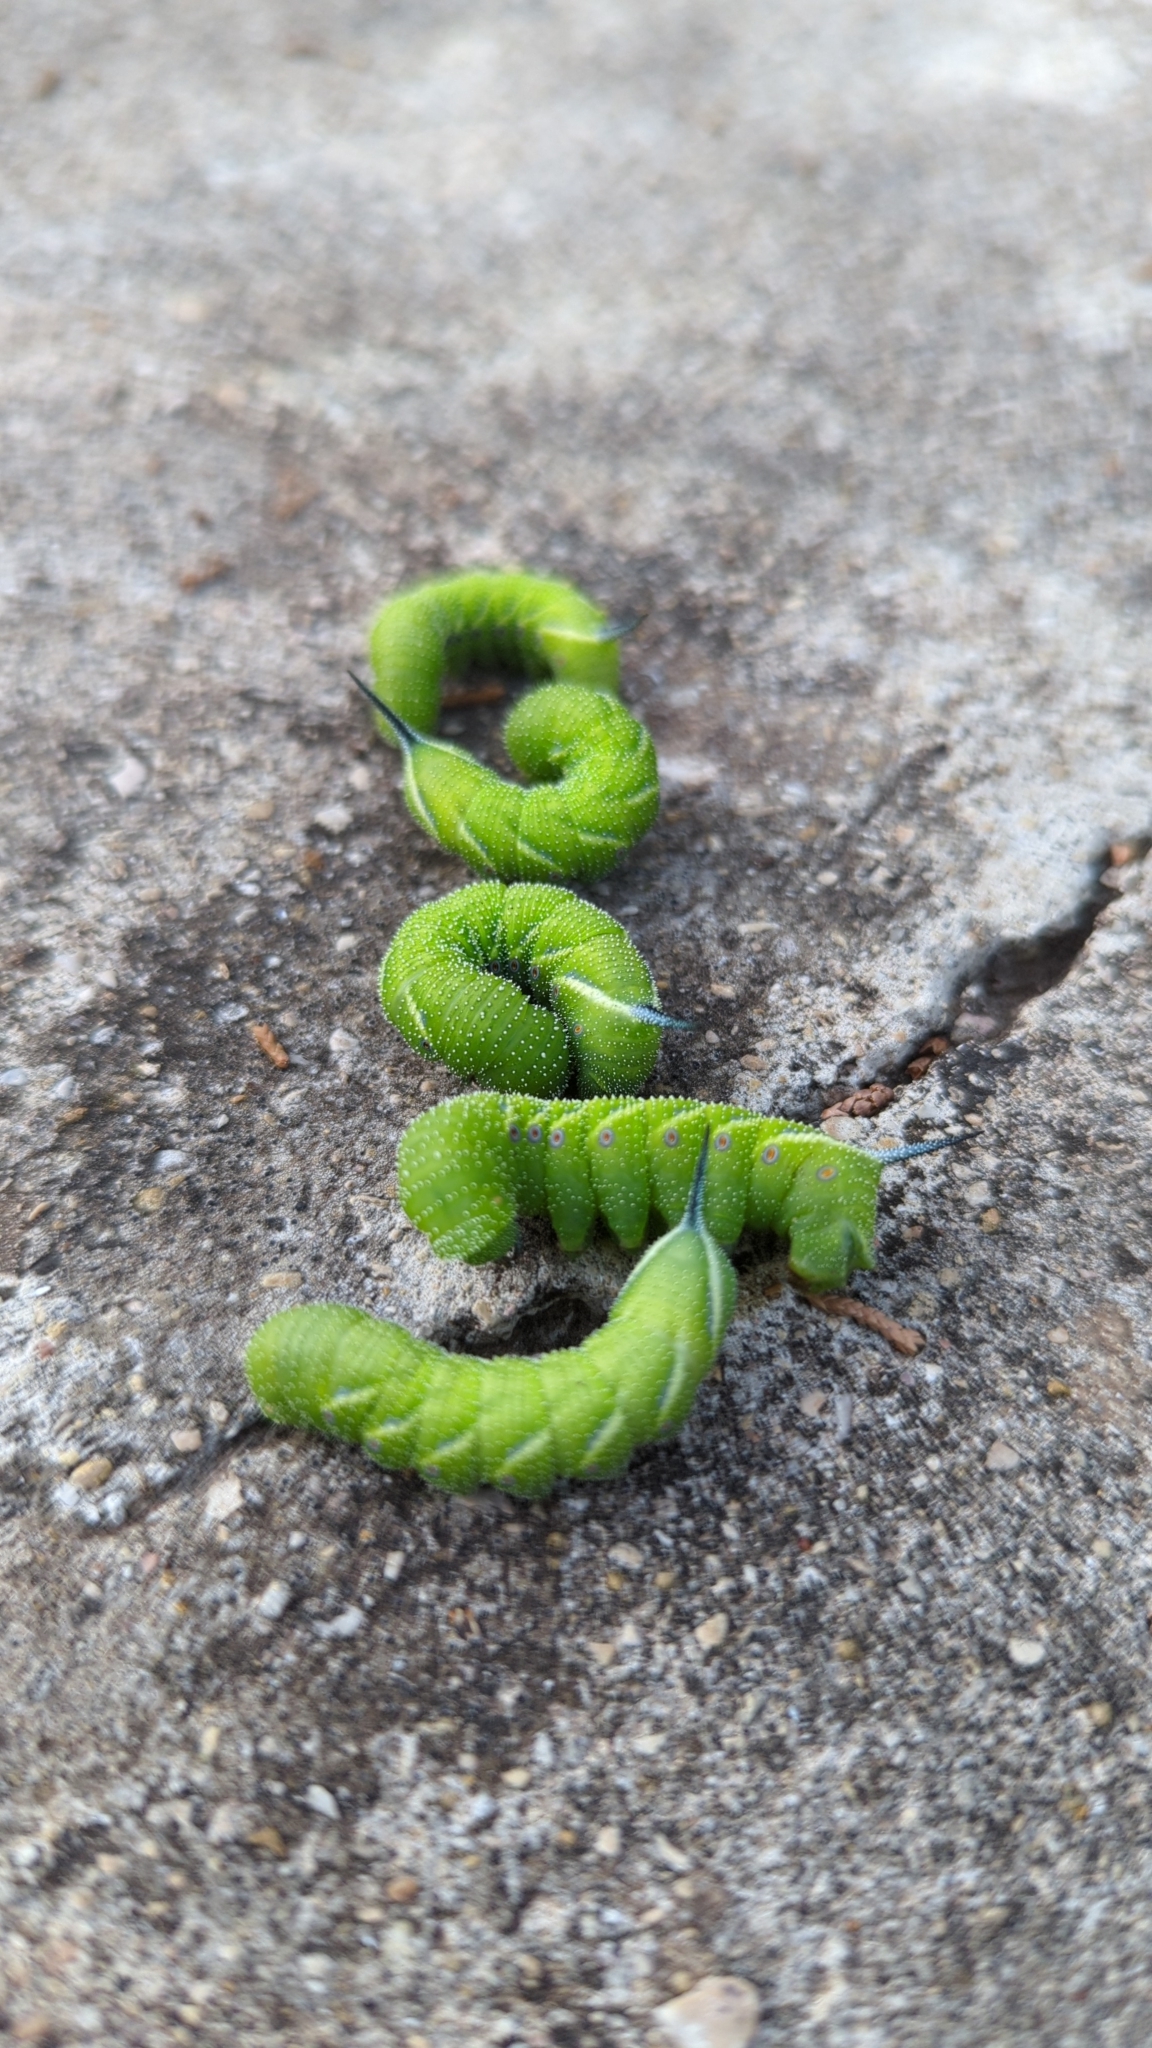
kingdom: Animalia
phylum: Arthropoda
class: Insecta
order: Lepidoptera
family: Sphingidae
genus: Manduca
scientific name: Manduca quinquemaculatus
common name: Five-spotted hawk-moth
